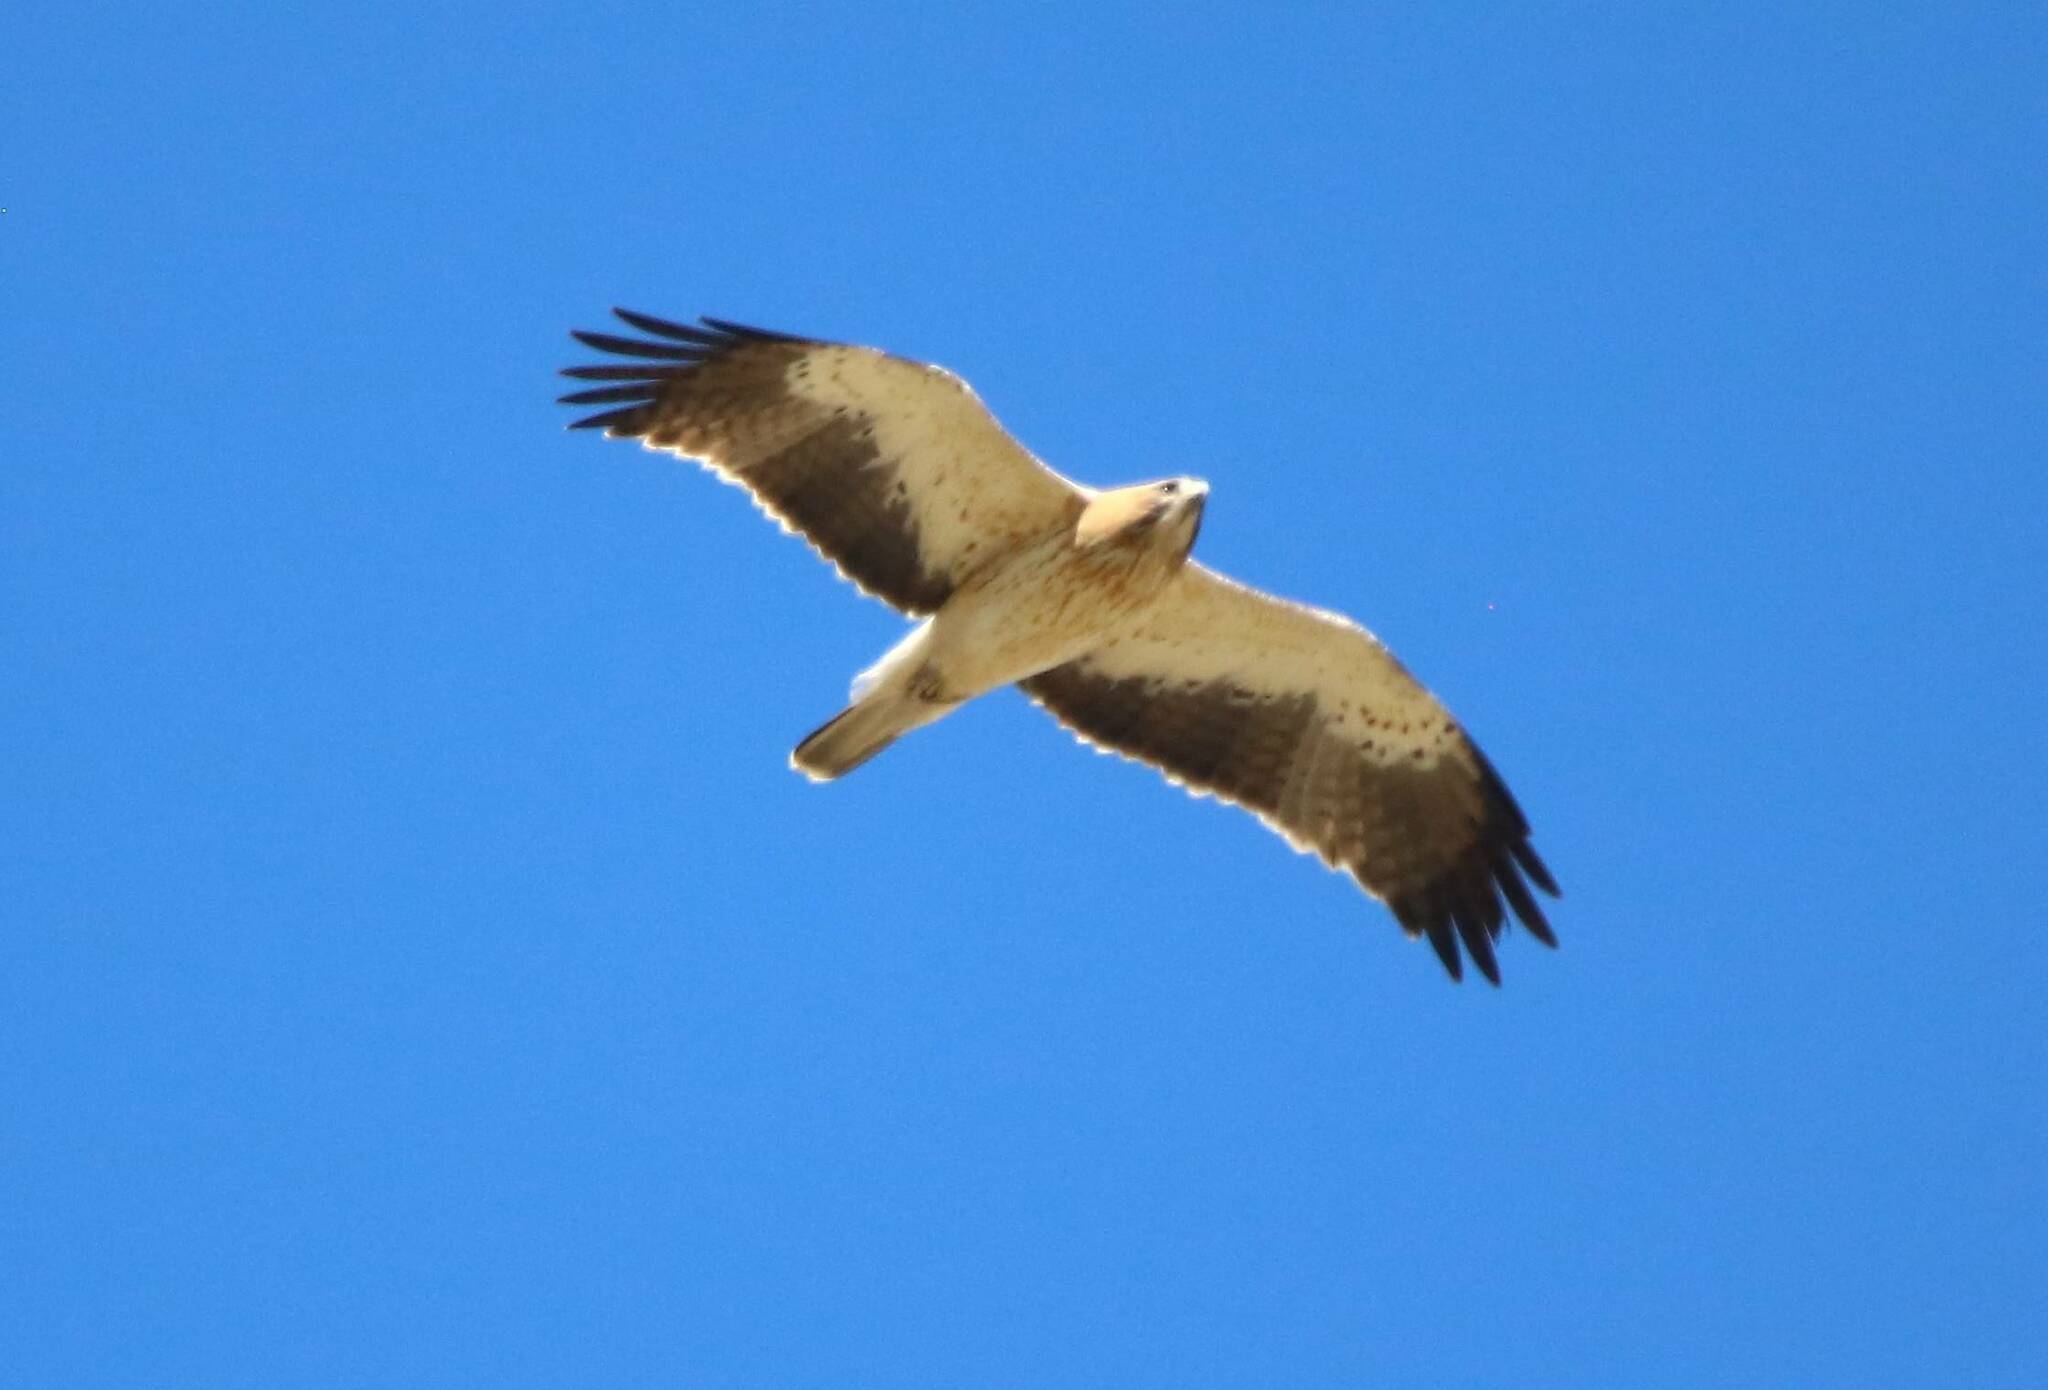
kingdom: Animalia
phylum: Chordata
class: Aves
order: Accipitriformes
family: Accipitridae
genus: Hieraaetus
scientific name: Hieraaetus pennatus
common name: Booted eagle
